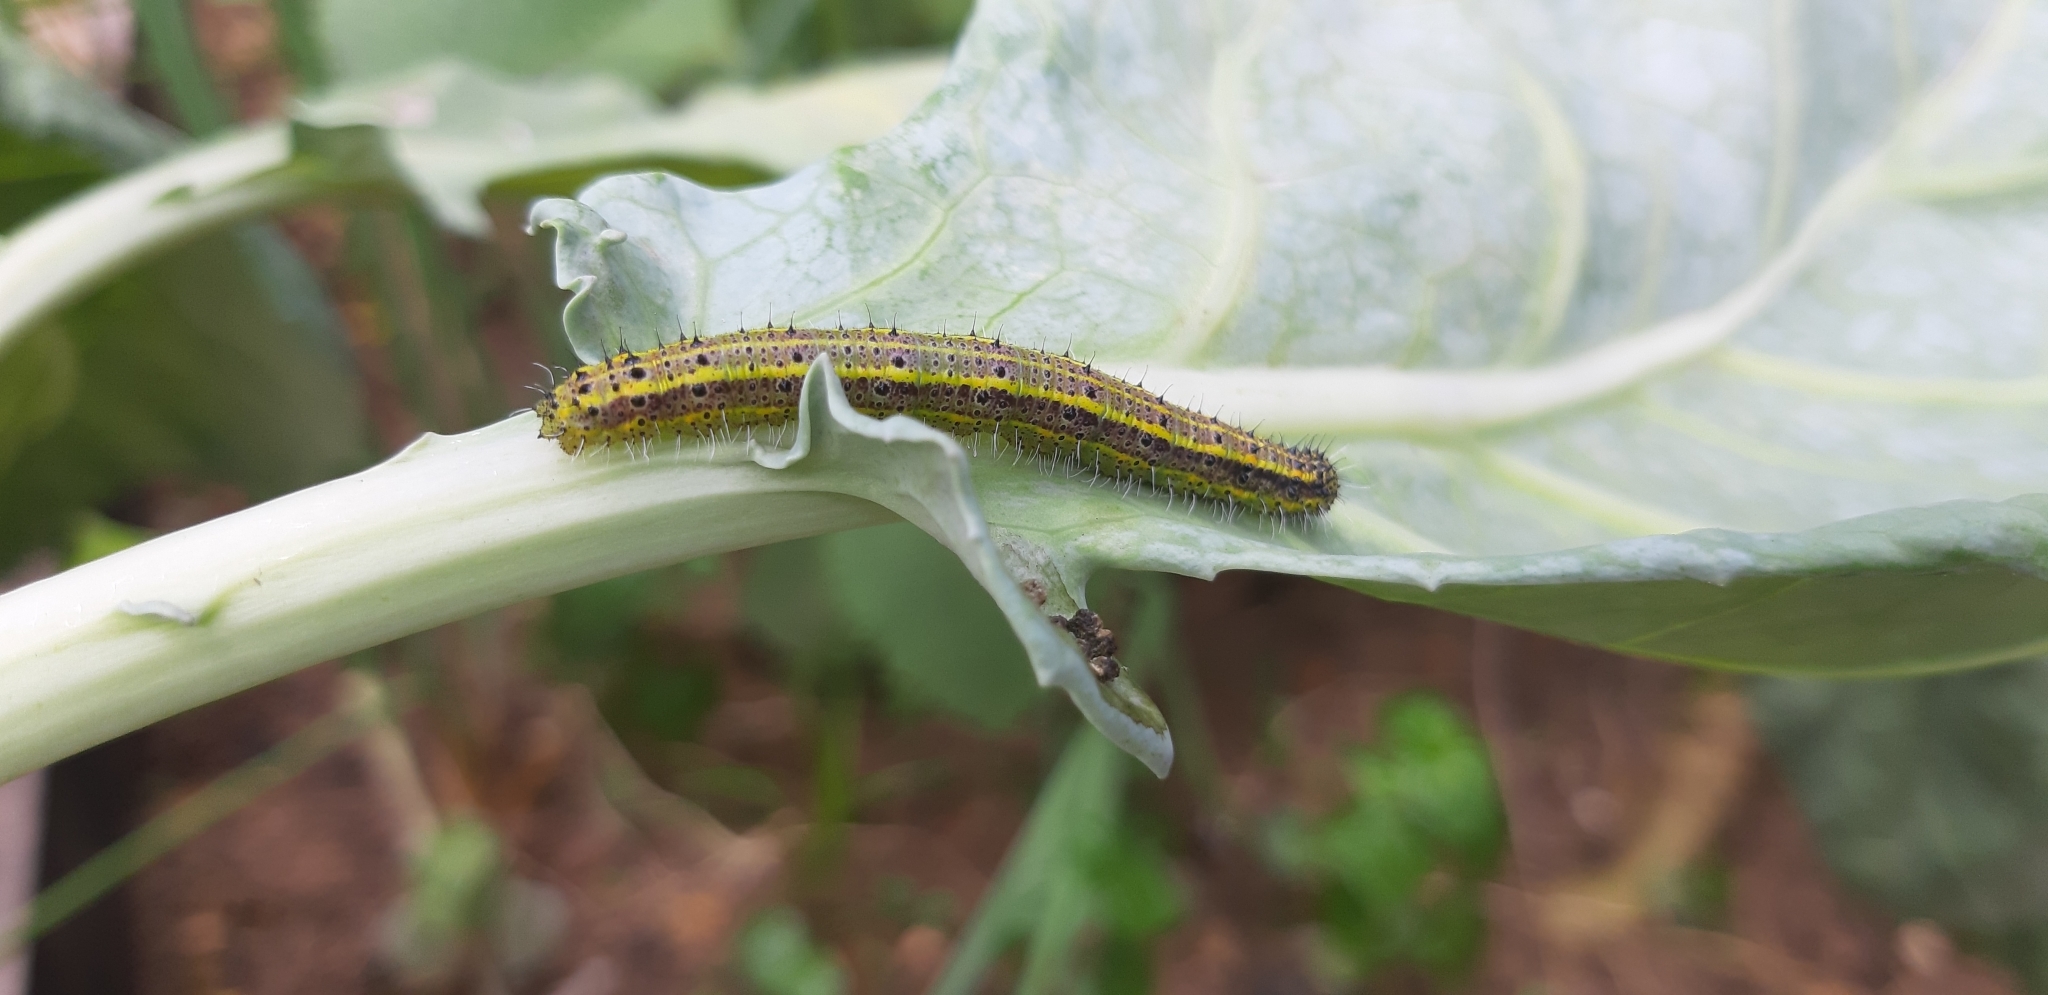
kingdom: Animalia
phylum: Arthropoda
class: Insecta
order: Lepidoptera
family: Pieridae
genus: Ascia
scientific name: Ascia monuste
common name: Great southern white
